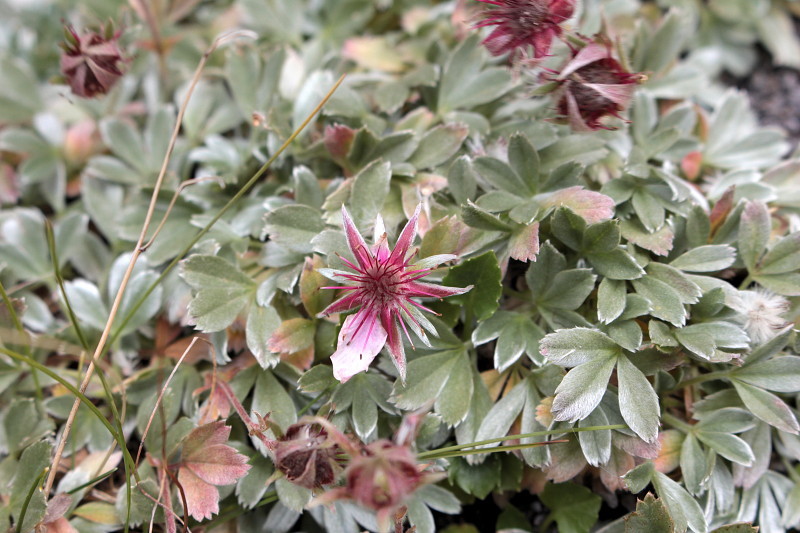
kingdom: Plantae
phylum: Tracheophyta
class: Magnoliopsida
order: Rosales
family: Rosaceae
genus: Potentilla
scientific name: Potentilla nitida
